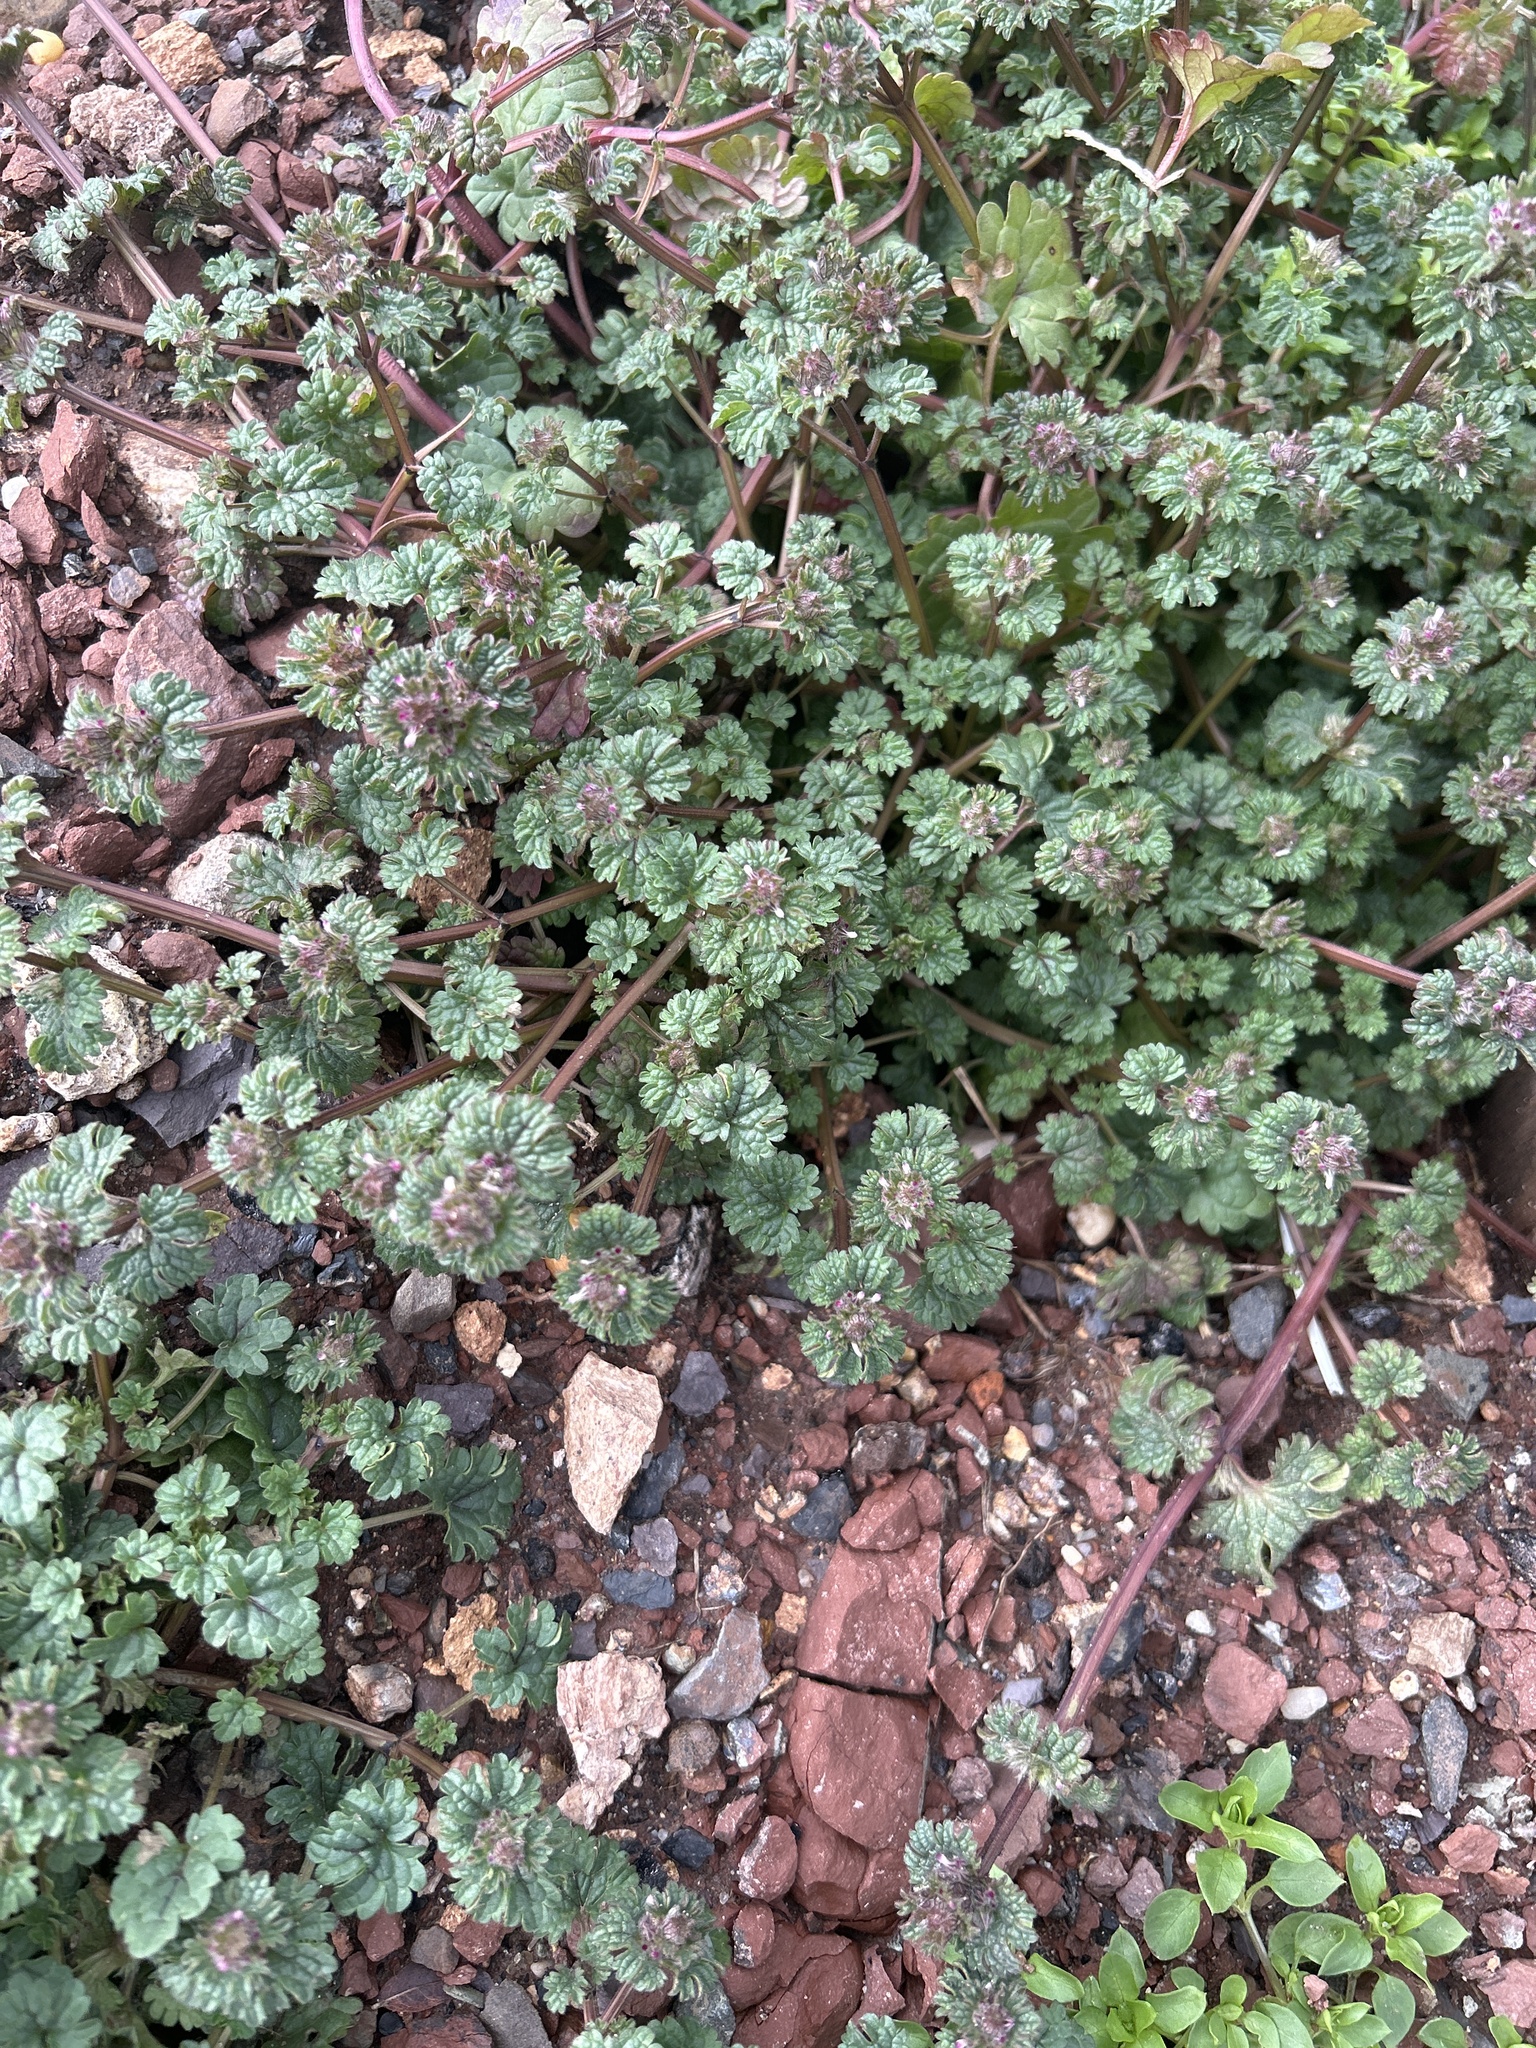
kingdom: Plantae
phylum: Tracheophyta
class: Magnoliopsida
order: Lamiales
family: Lamiaceae
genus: Lamium
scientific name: Lamium amplexicaule
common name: Henbit dead-nettle
